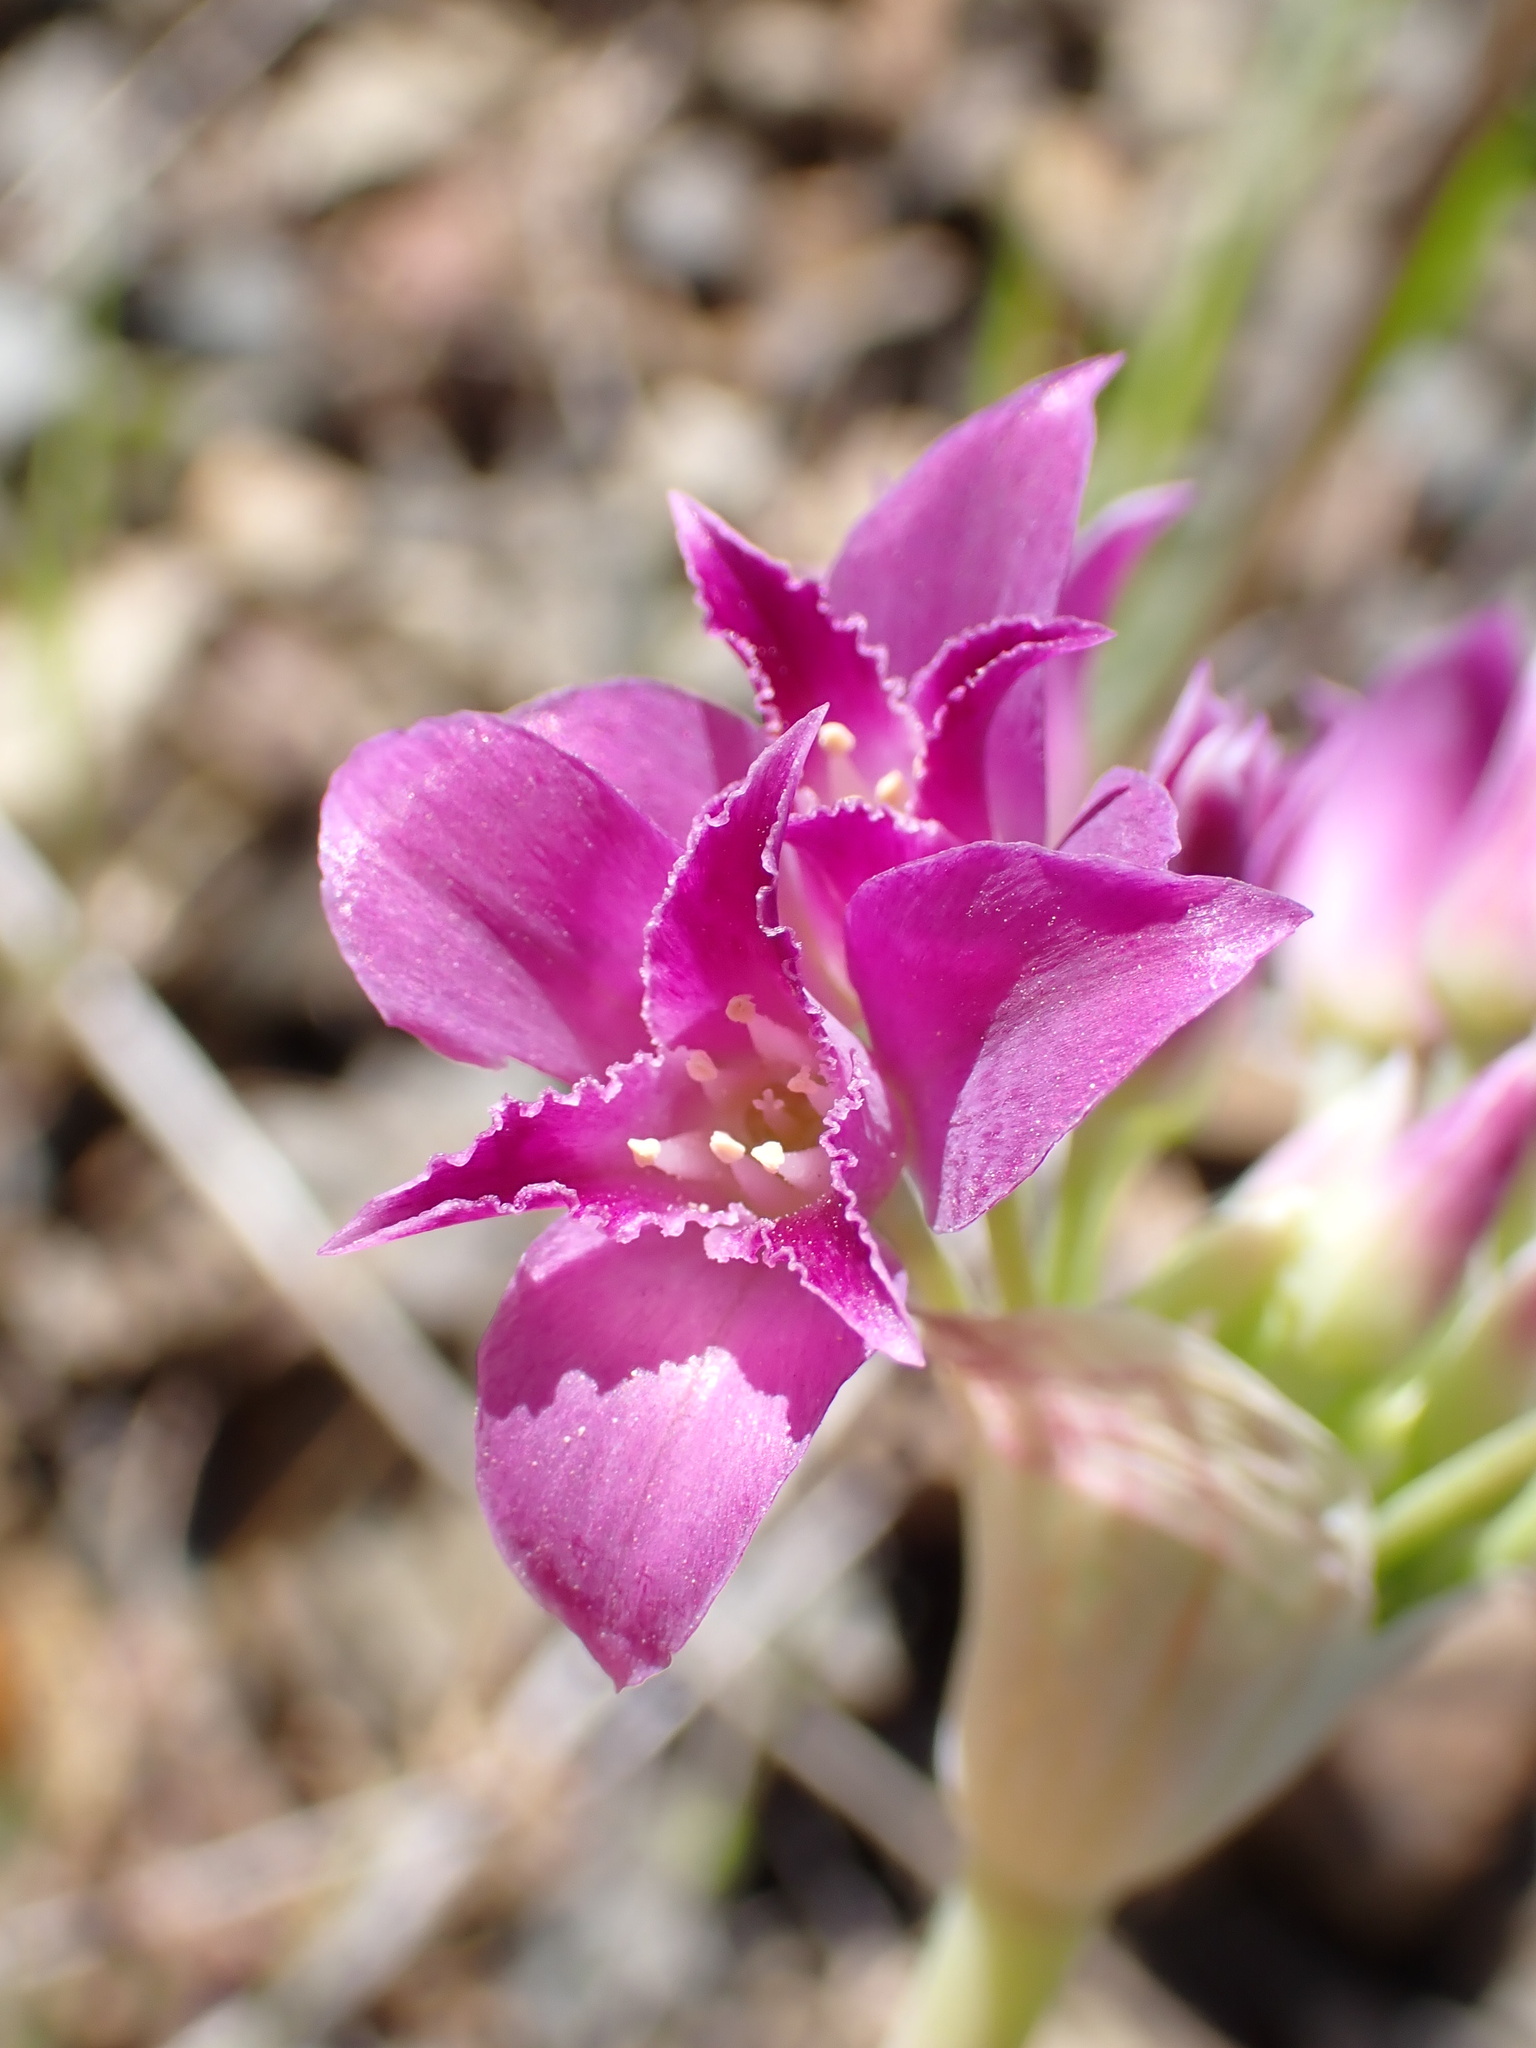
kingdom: Plantae
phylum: Tracheophyta
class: Liliopsida
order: Asparagales
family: Amaryllidaceae
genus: Allium
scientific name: Allium crispum
